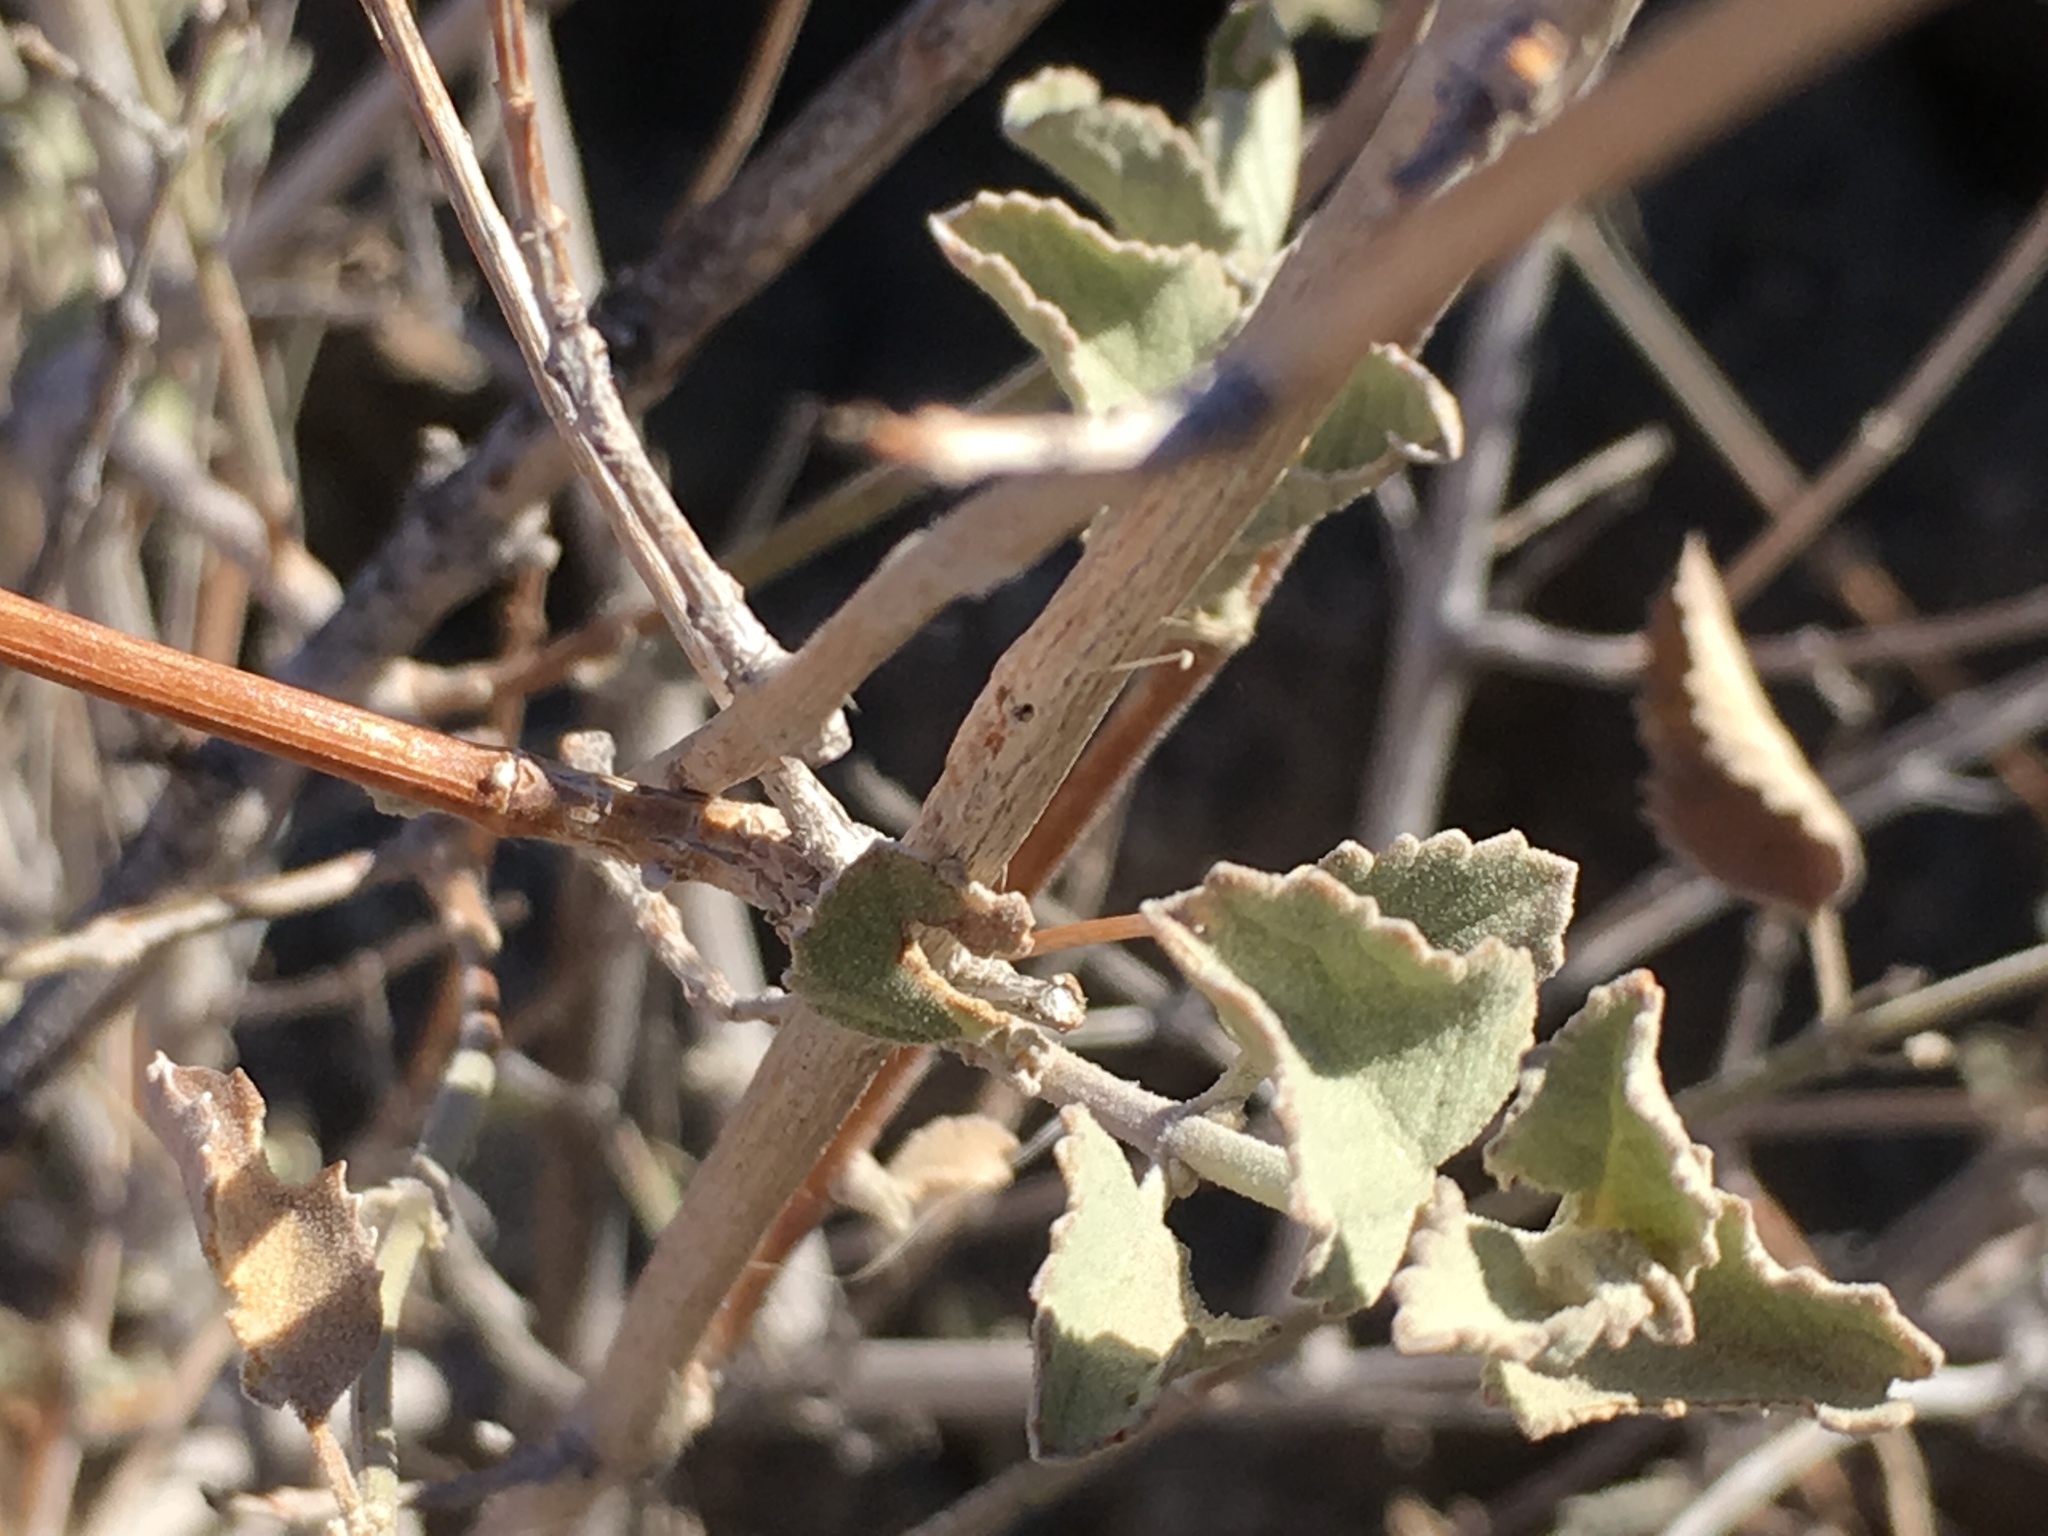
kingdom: Plantae
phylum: Tracheophyta
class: Magnoliopsida
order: Lamiales
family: Lamiaceae
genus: Condea
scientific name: Condea emoryi
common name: Chia
